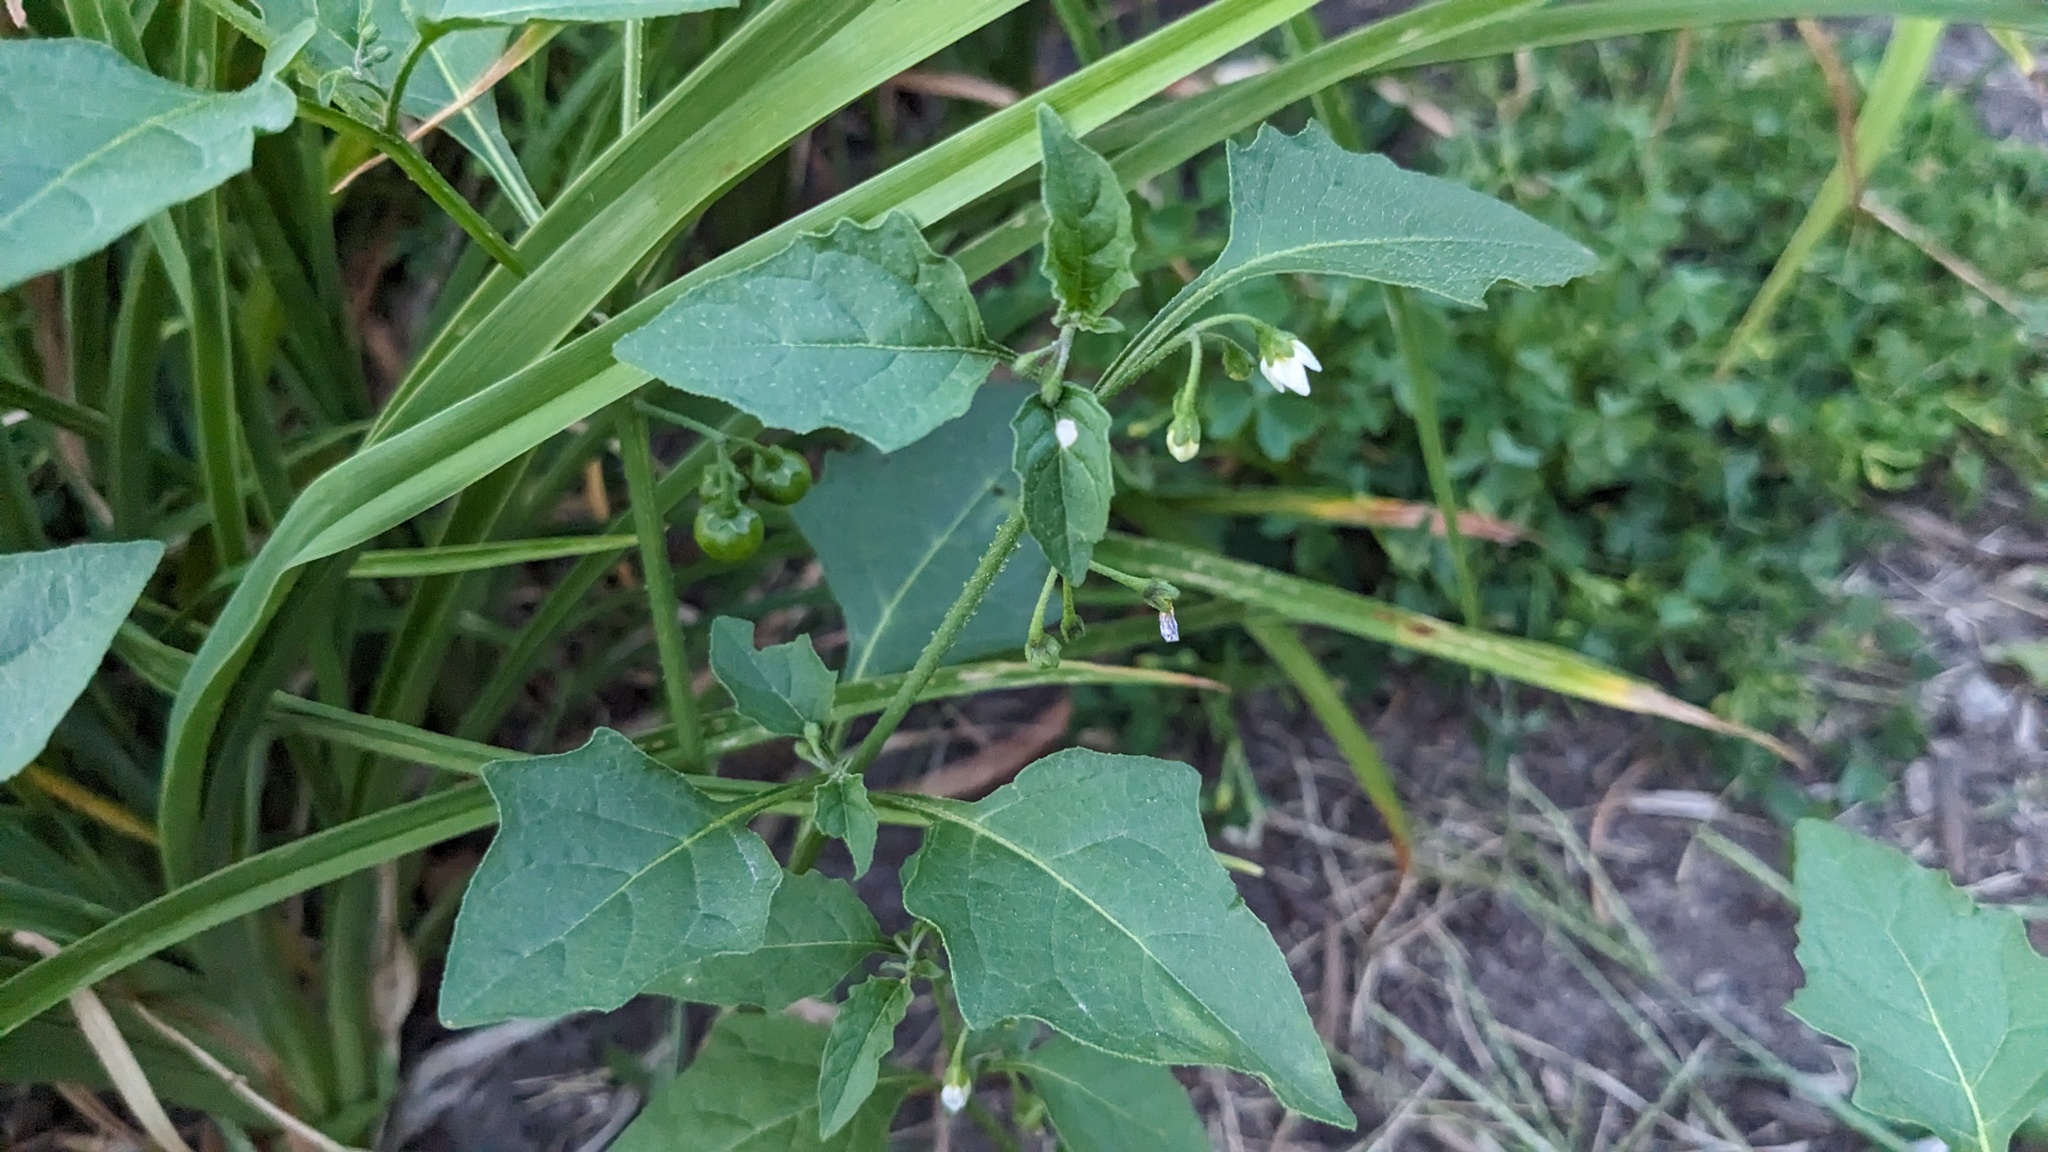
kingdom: Plantae
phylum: Tracheophyta
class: Magnoliopsida
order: Solanales
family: Solanaceae
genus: Solanum
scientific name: Solanum emulans
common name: Eastern black nightshade
